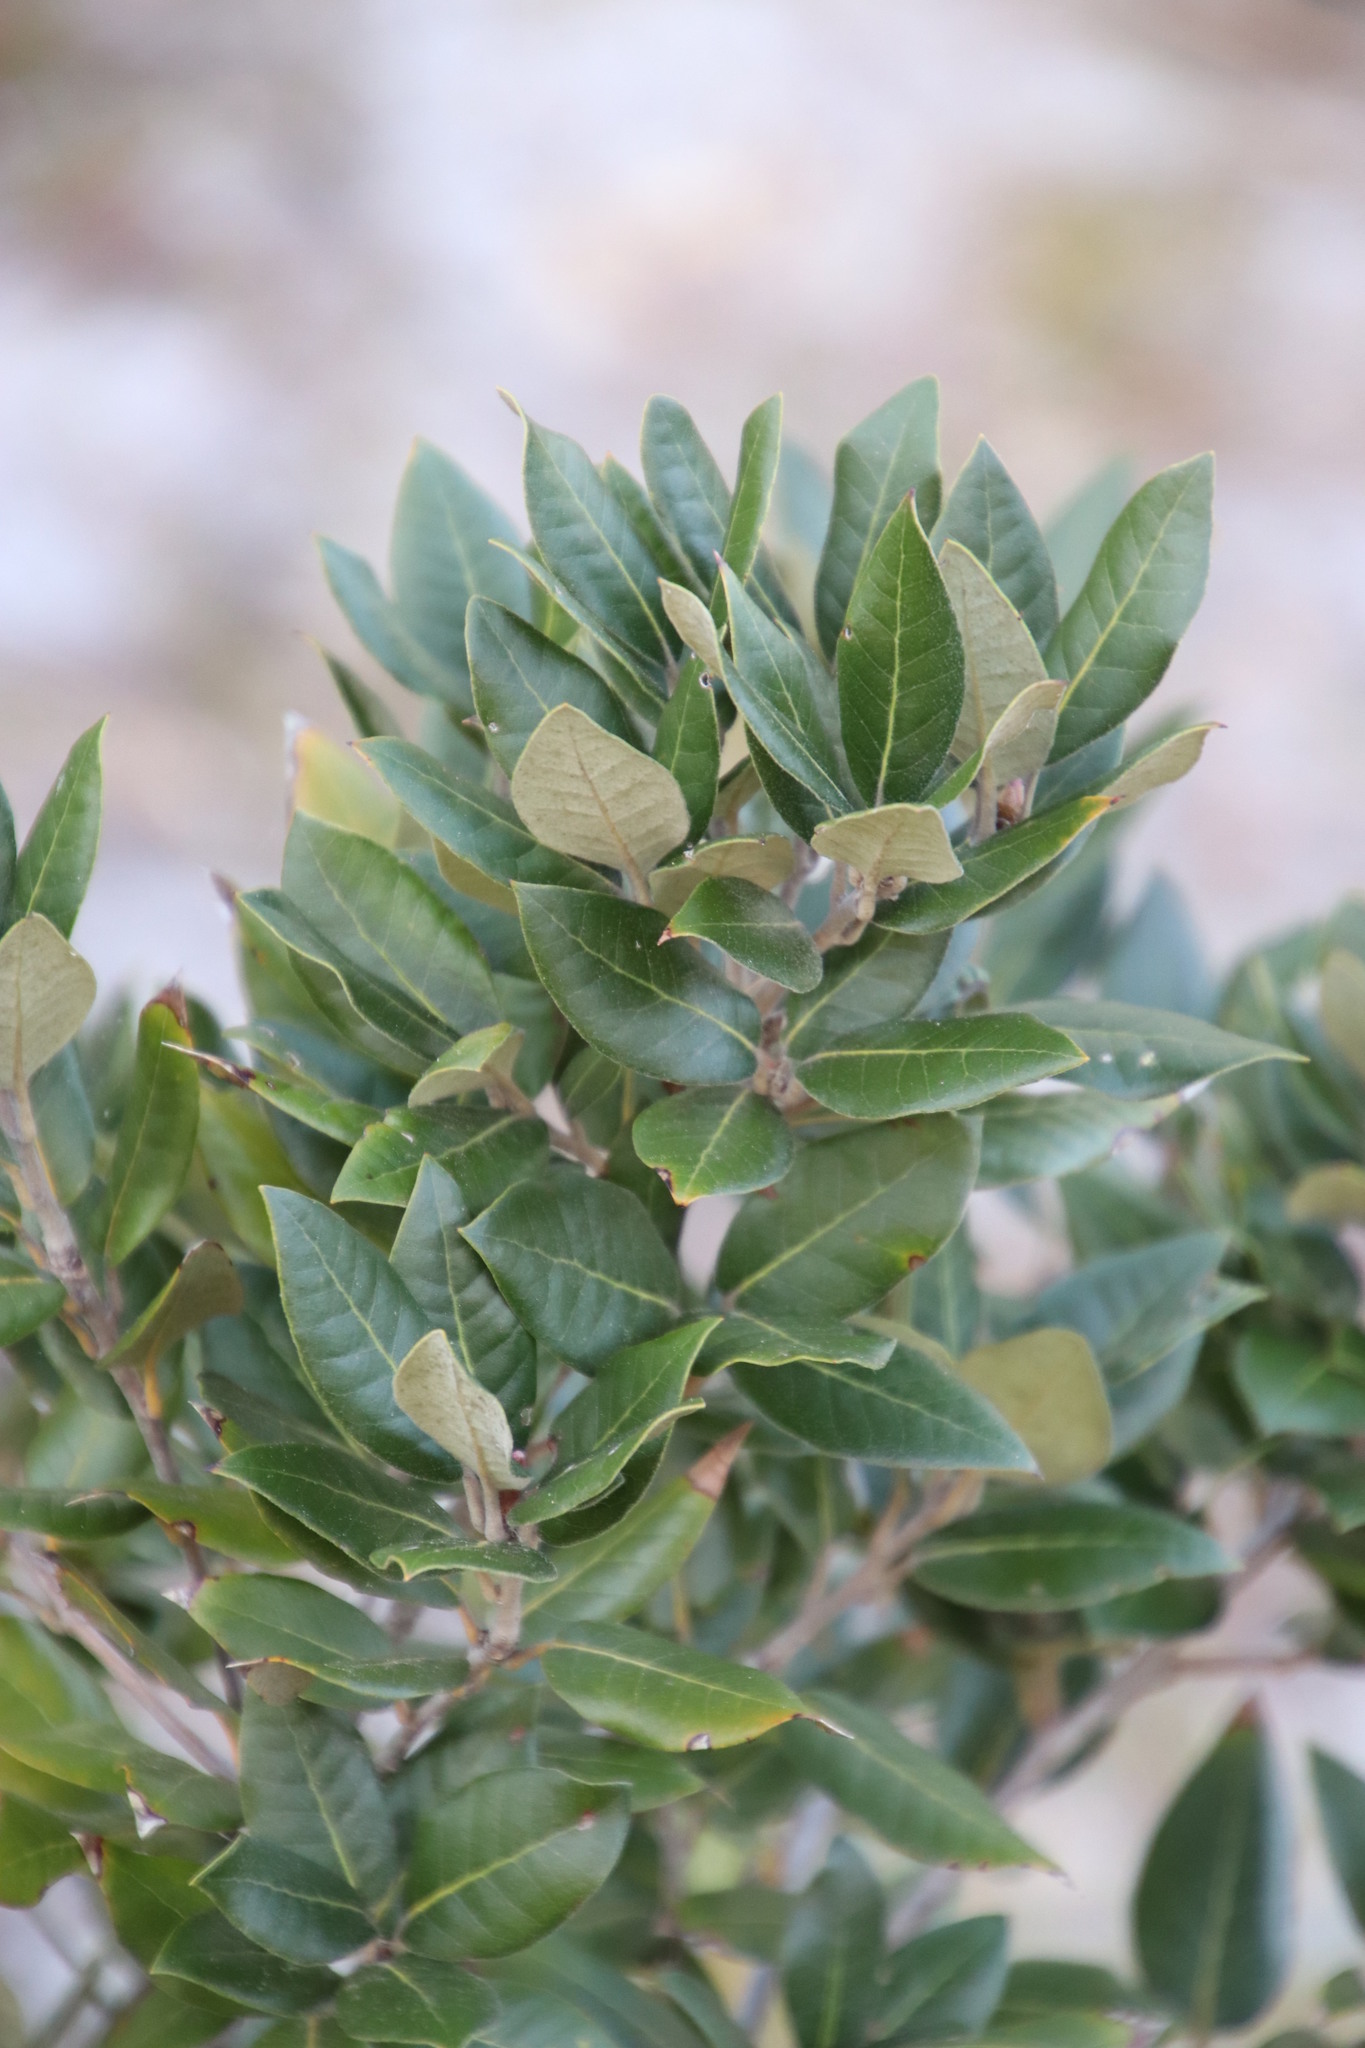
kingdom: Plantae
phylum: Tracheophyta
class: Magnoliopsida
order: Fagales
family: Fagaceae
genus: Quercus
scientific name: Quercus ilex
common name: Evergreen oak
